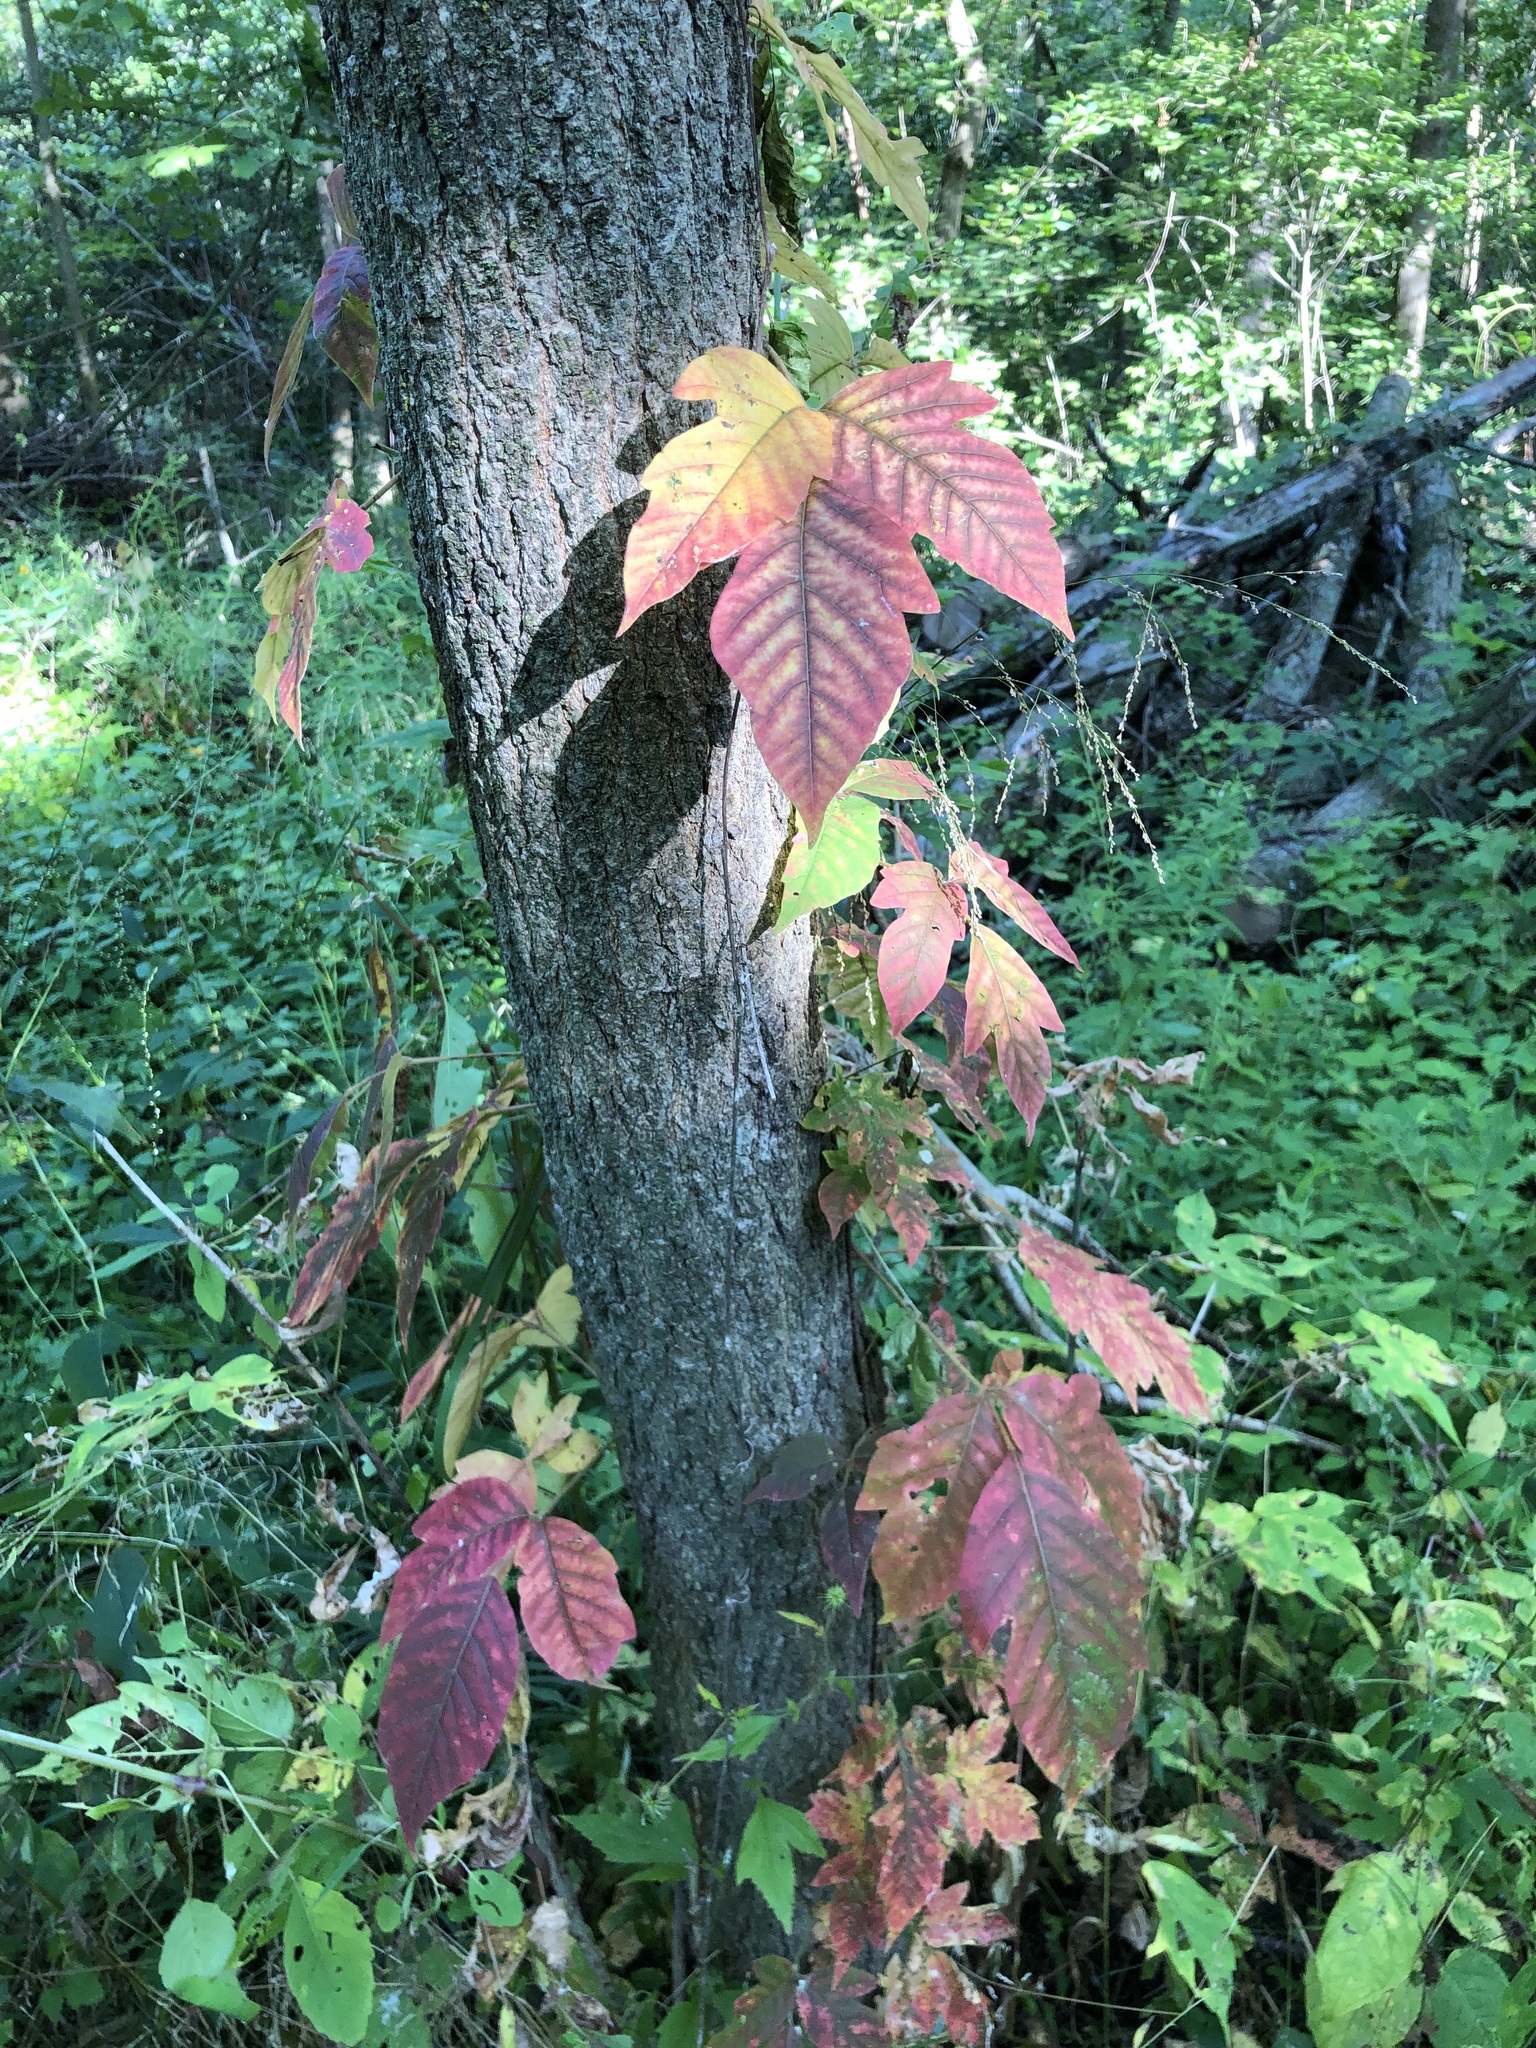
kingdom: Plantae
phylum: Tracheophyta
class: Magnoliopsida
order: Sapindales
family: Anacardiaceae
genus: Toxicodendron
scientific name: Toxicodendron radicans
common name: Poison ivy
